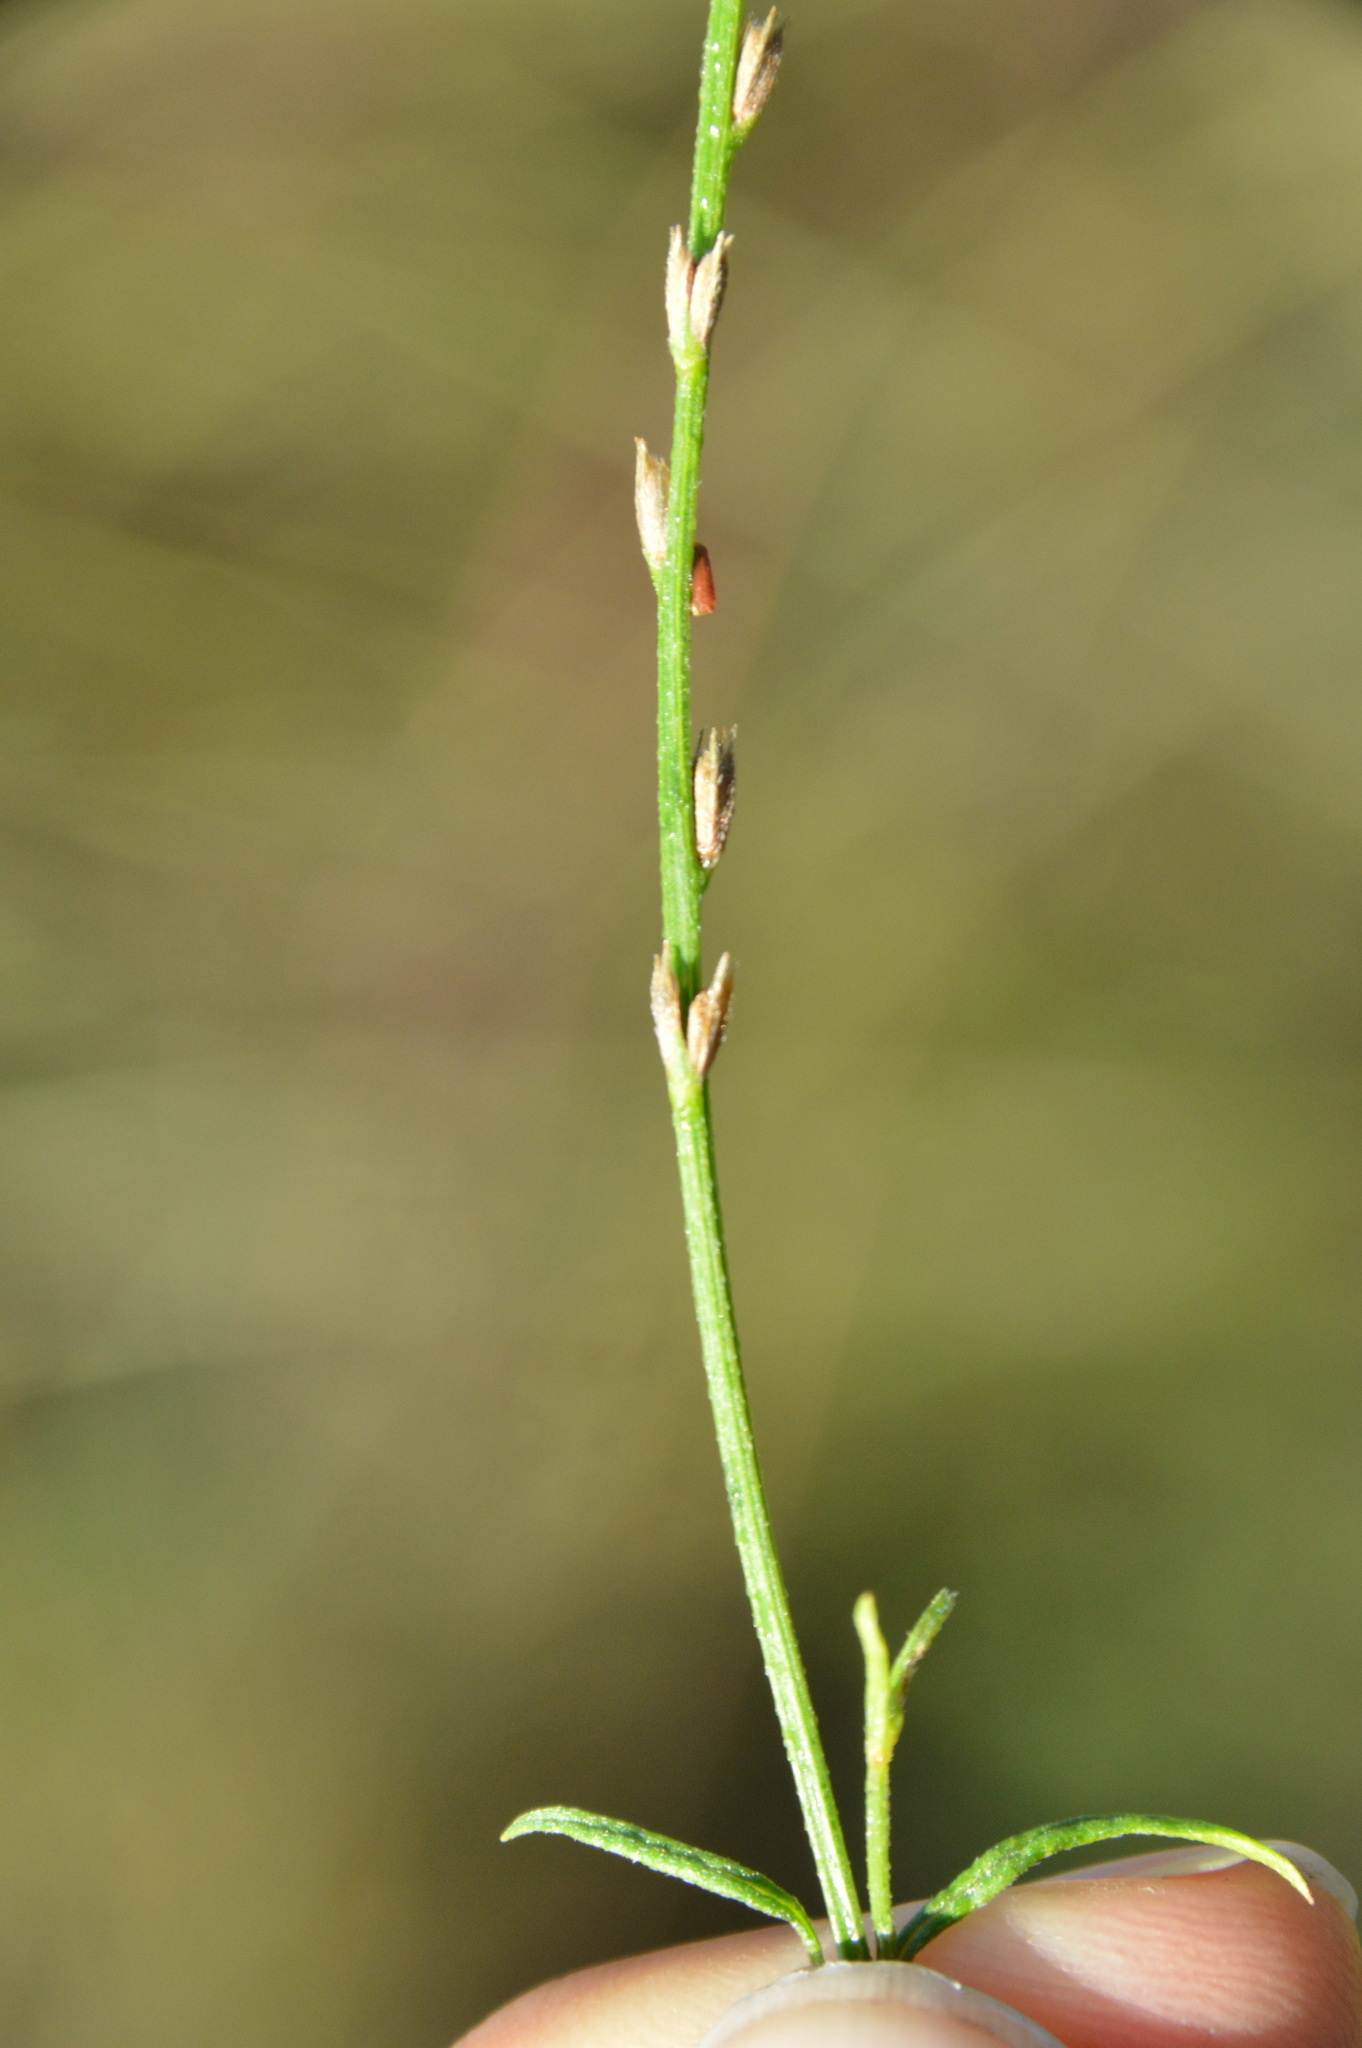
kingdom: Plantae
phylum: Tracheophyta
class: Magnoliopsida
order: Lamiales
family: Verbenaceae
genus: Verbena
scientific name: Verbena halei
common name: Texas vervain
